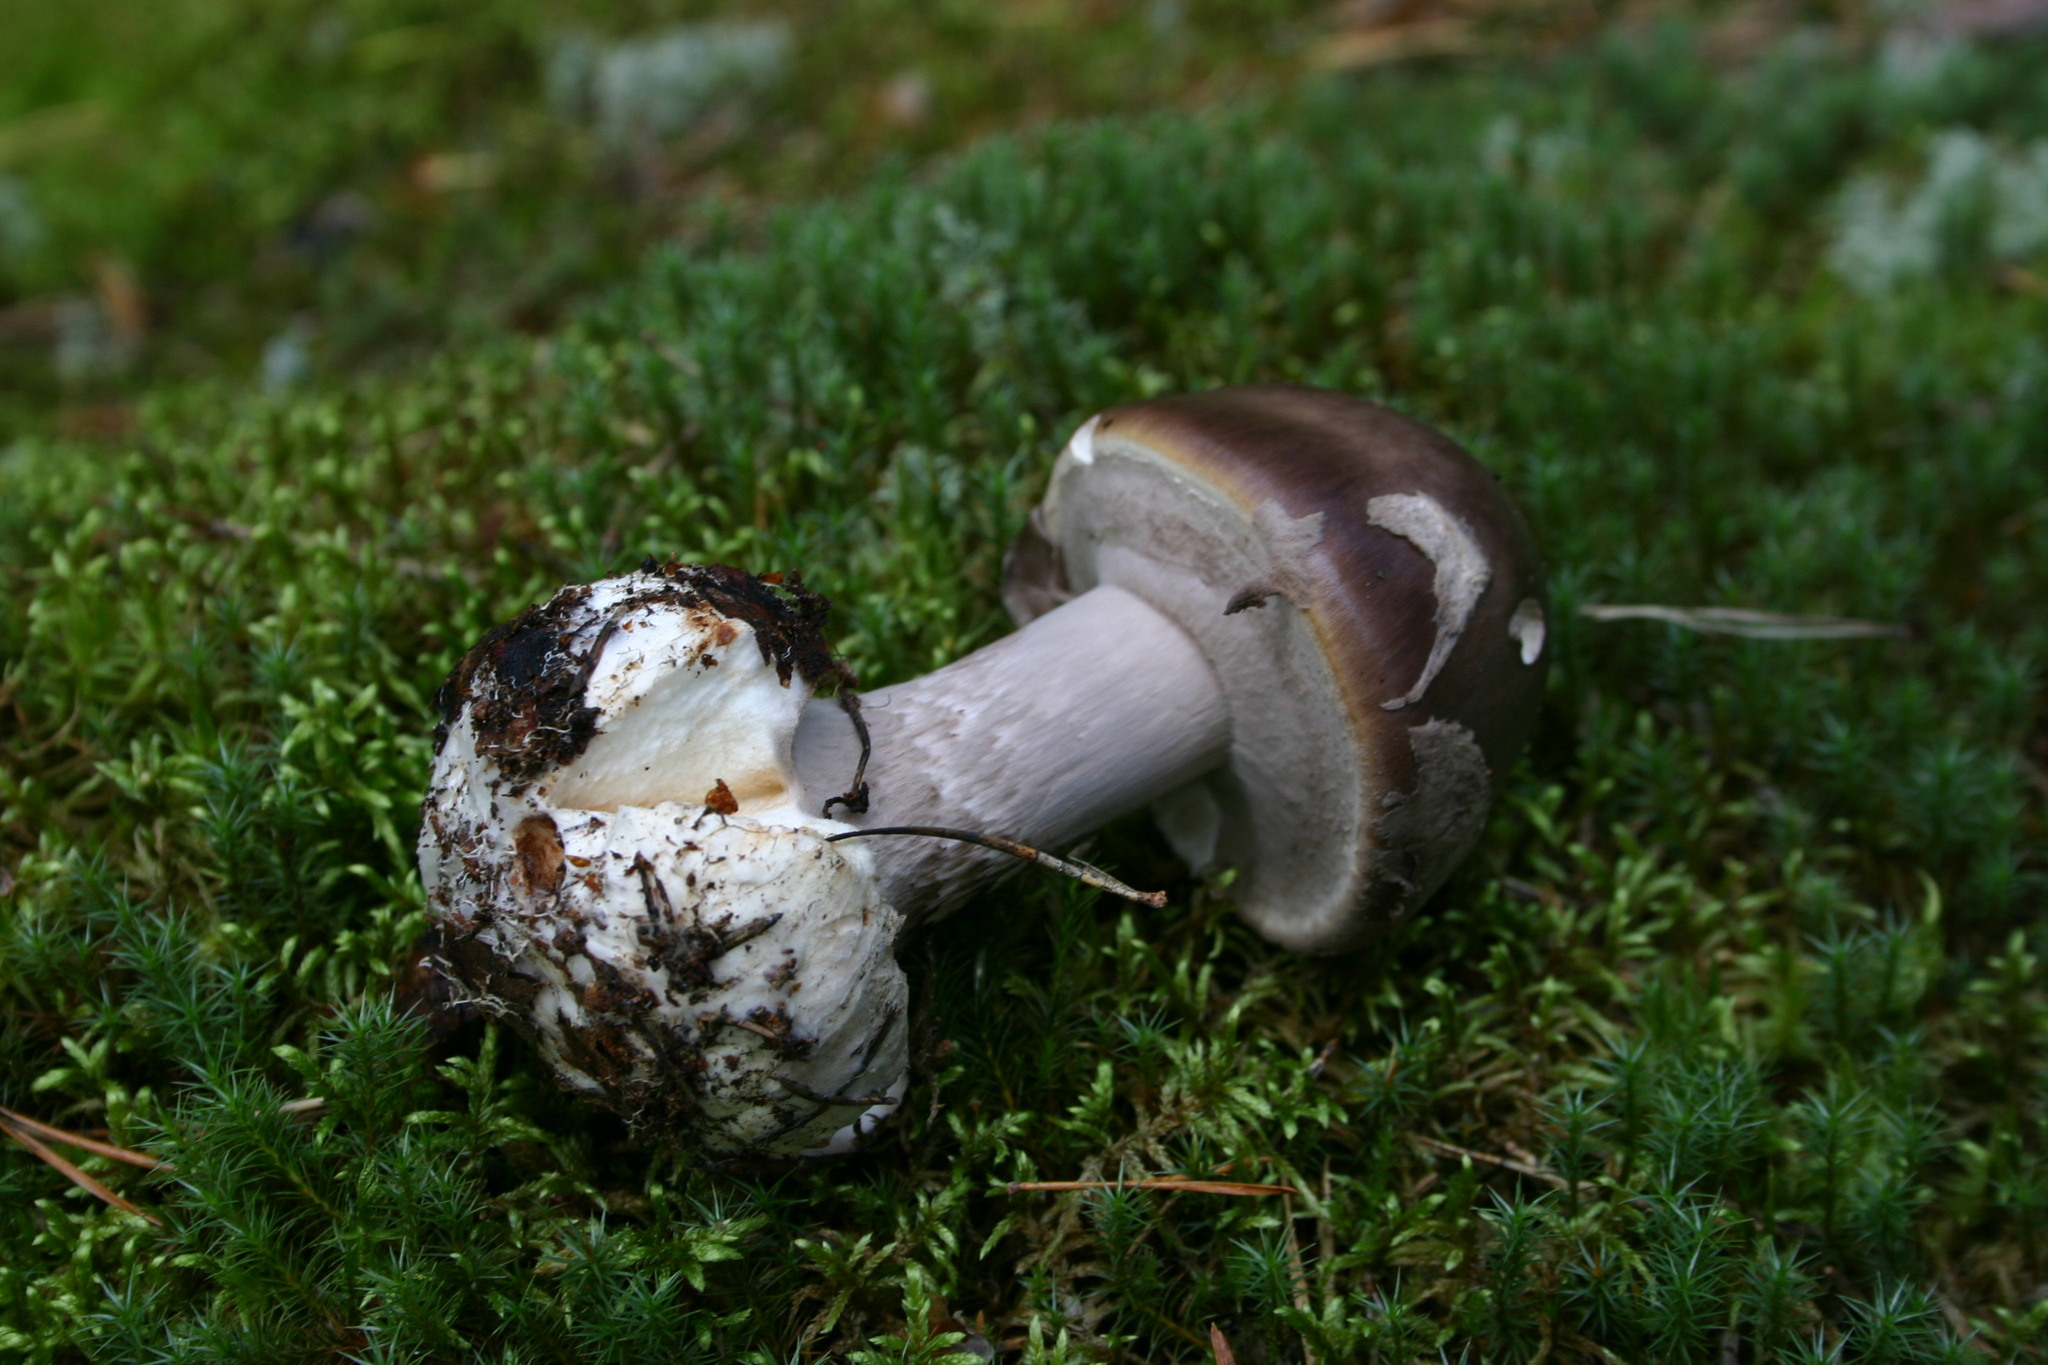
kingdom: Fungi
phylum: Basidiomycota
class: Agaricomycetes
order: Agaricales
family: Amanitaceae
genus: Amanita
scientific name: Amanita porphyria
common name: Grey veiled amanita
